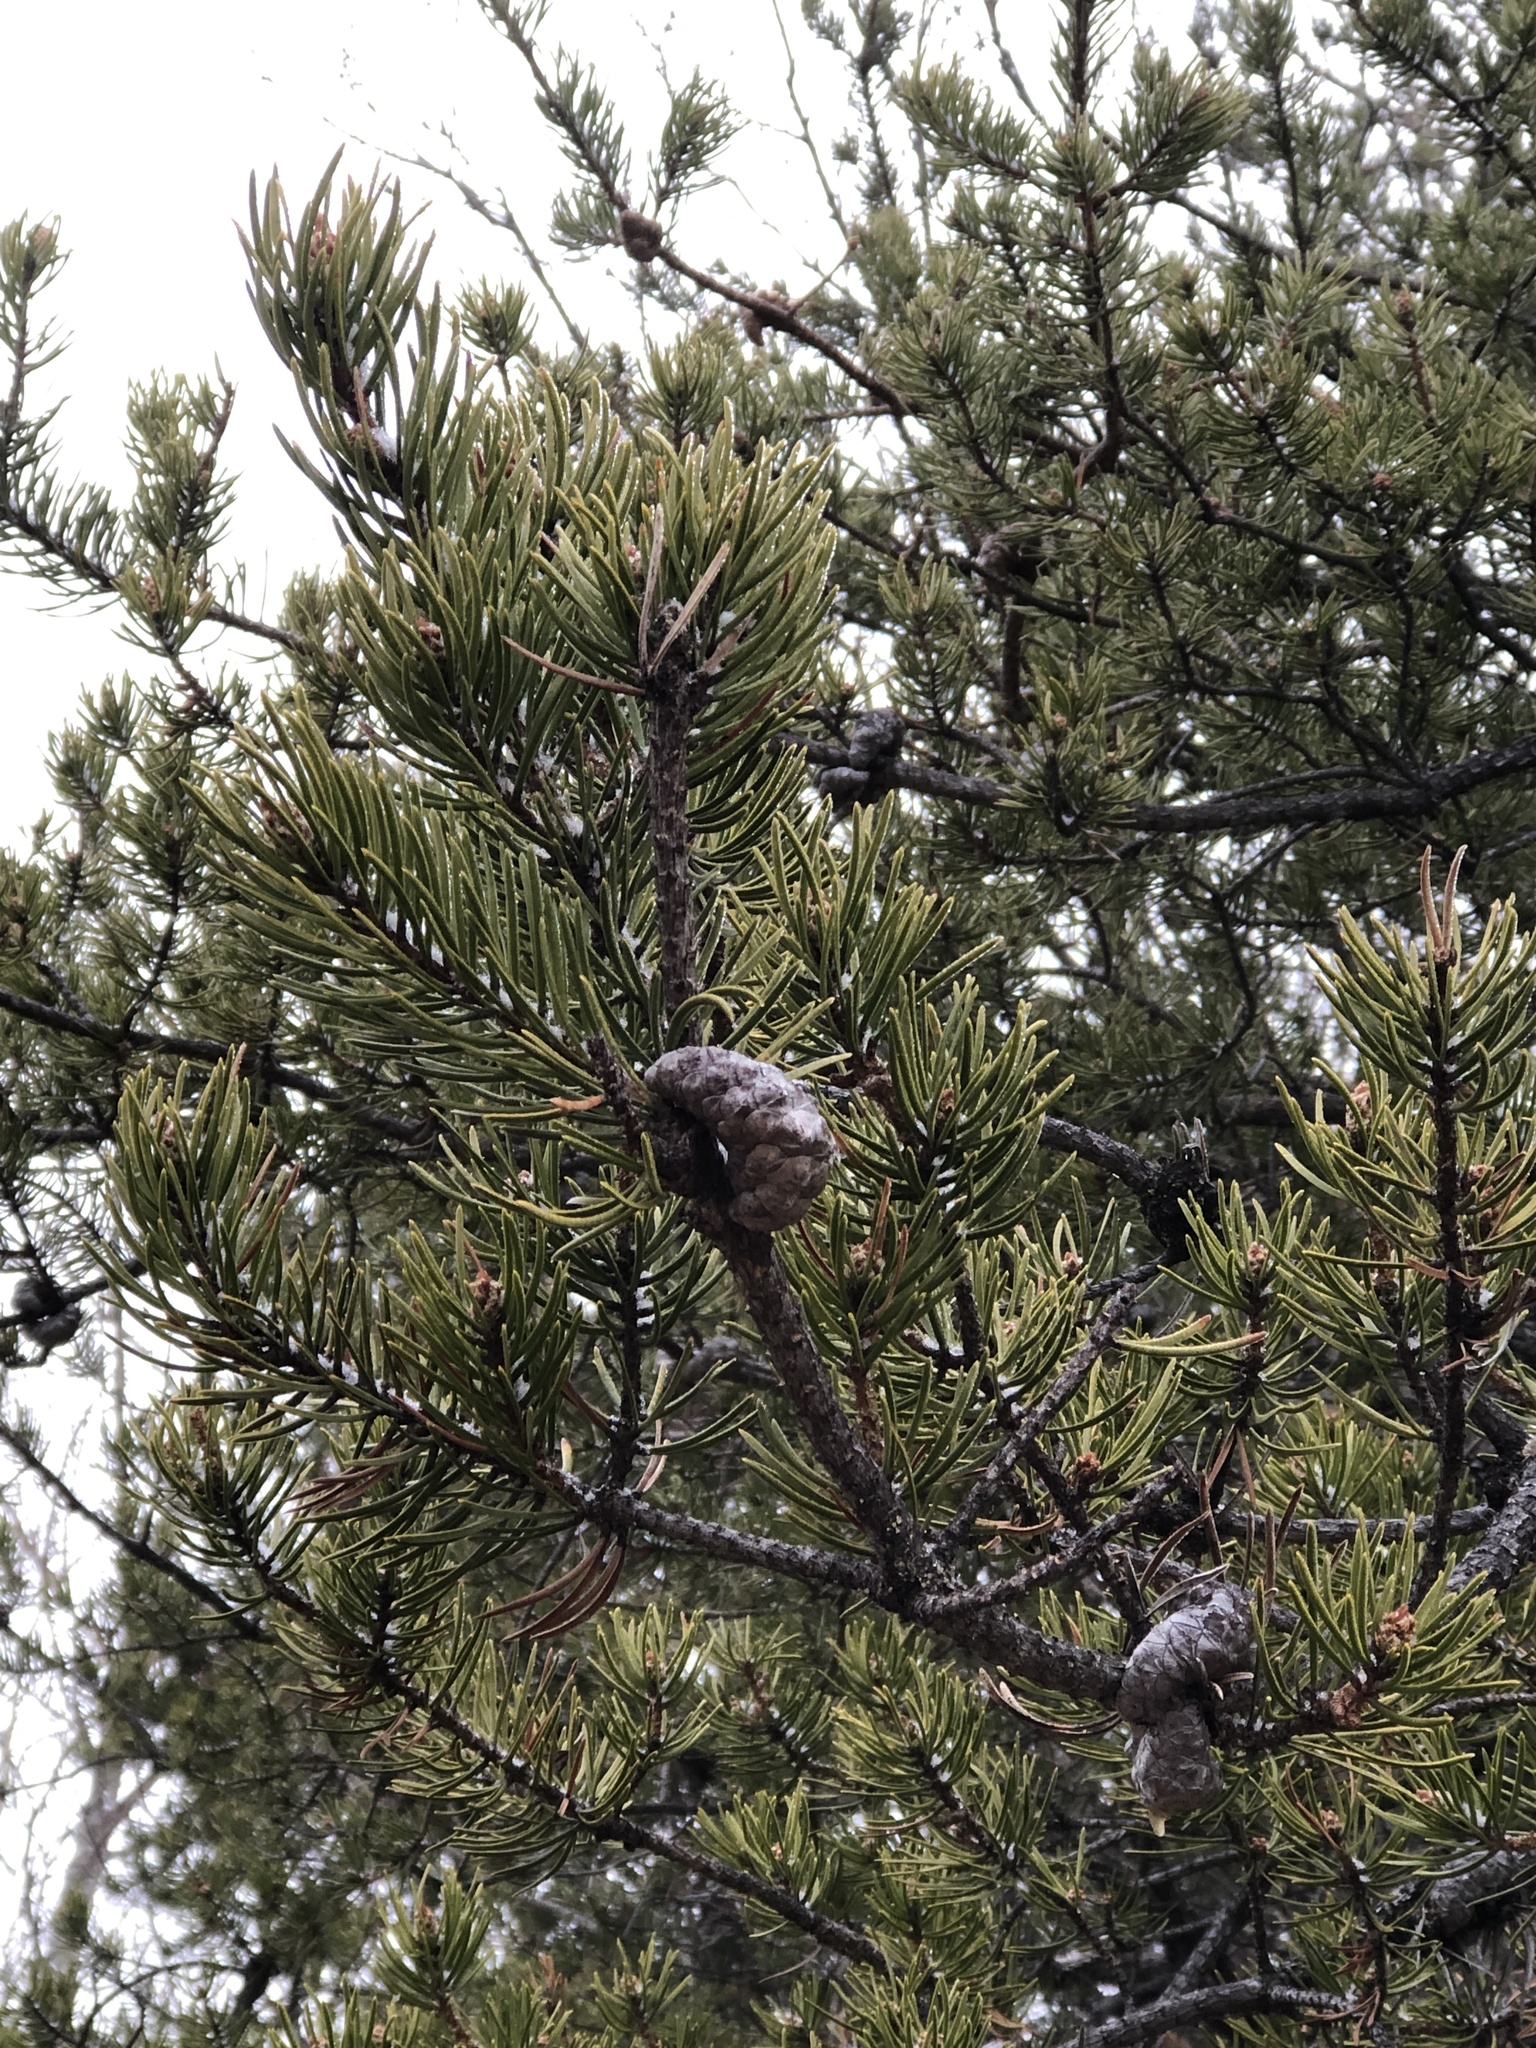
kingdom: Plantae
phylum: Tracheophyta
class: Pinopsida
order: Pinales
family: Pinaceae
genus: Pinus
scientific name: Pinus banksiana
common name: Jack pine
